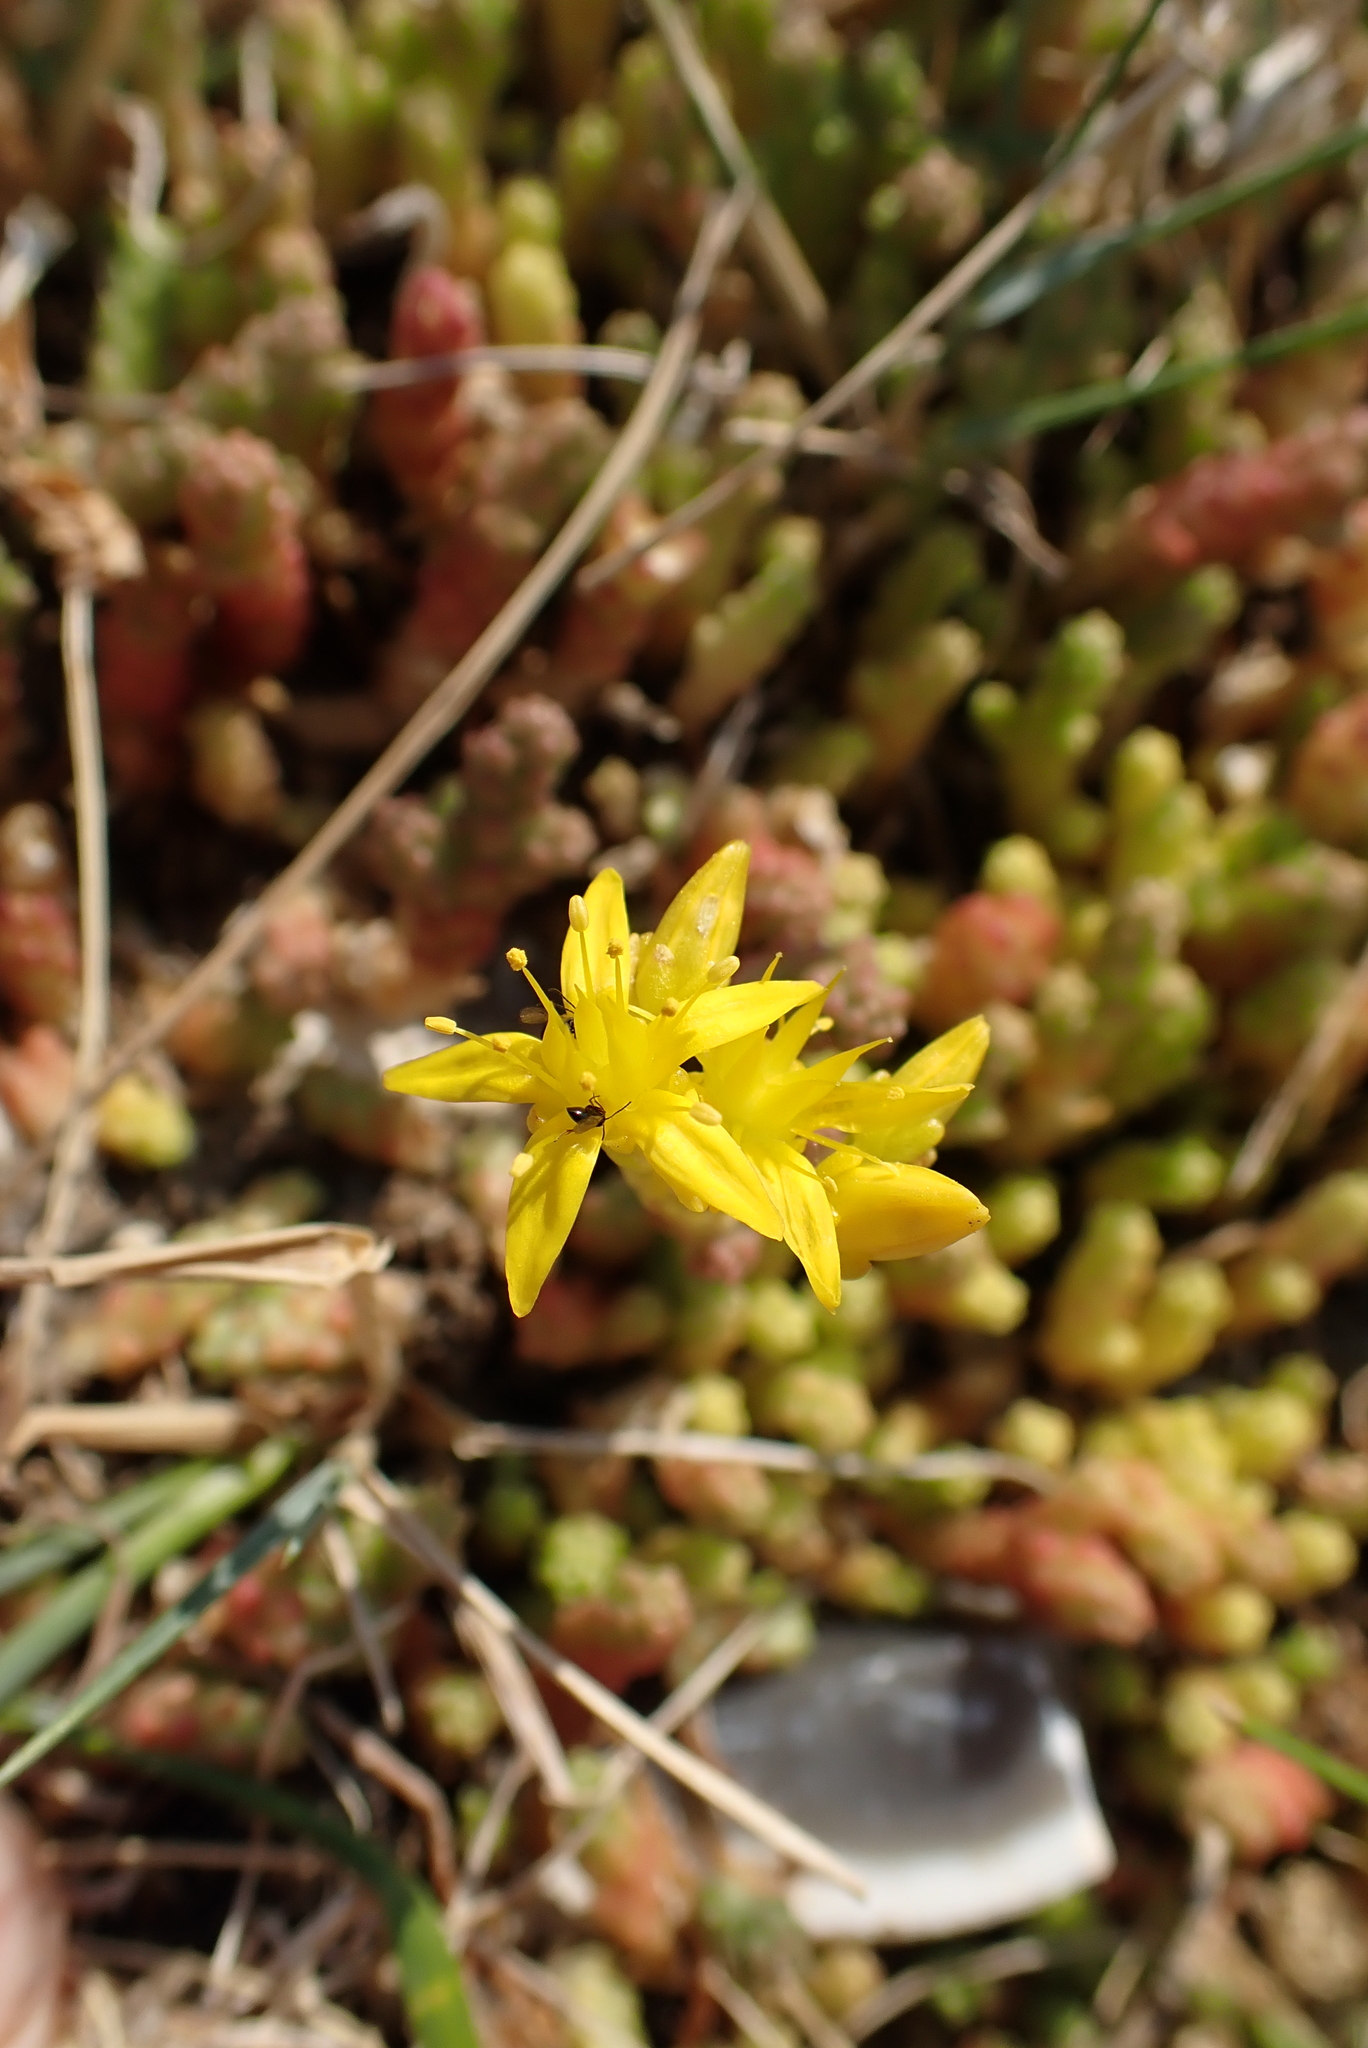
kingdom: Plantae
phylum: Tracheophyta
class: Magnoliopsida
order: Saxifragales
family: Crassulaceae
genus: Sedum
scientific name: Sedum acre
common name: Biting stonecrop
